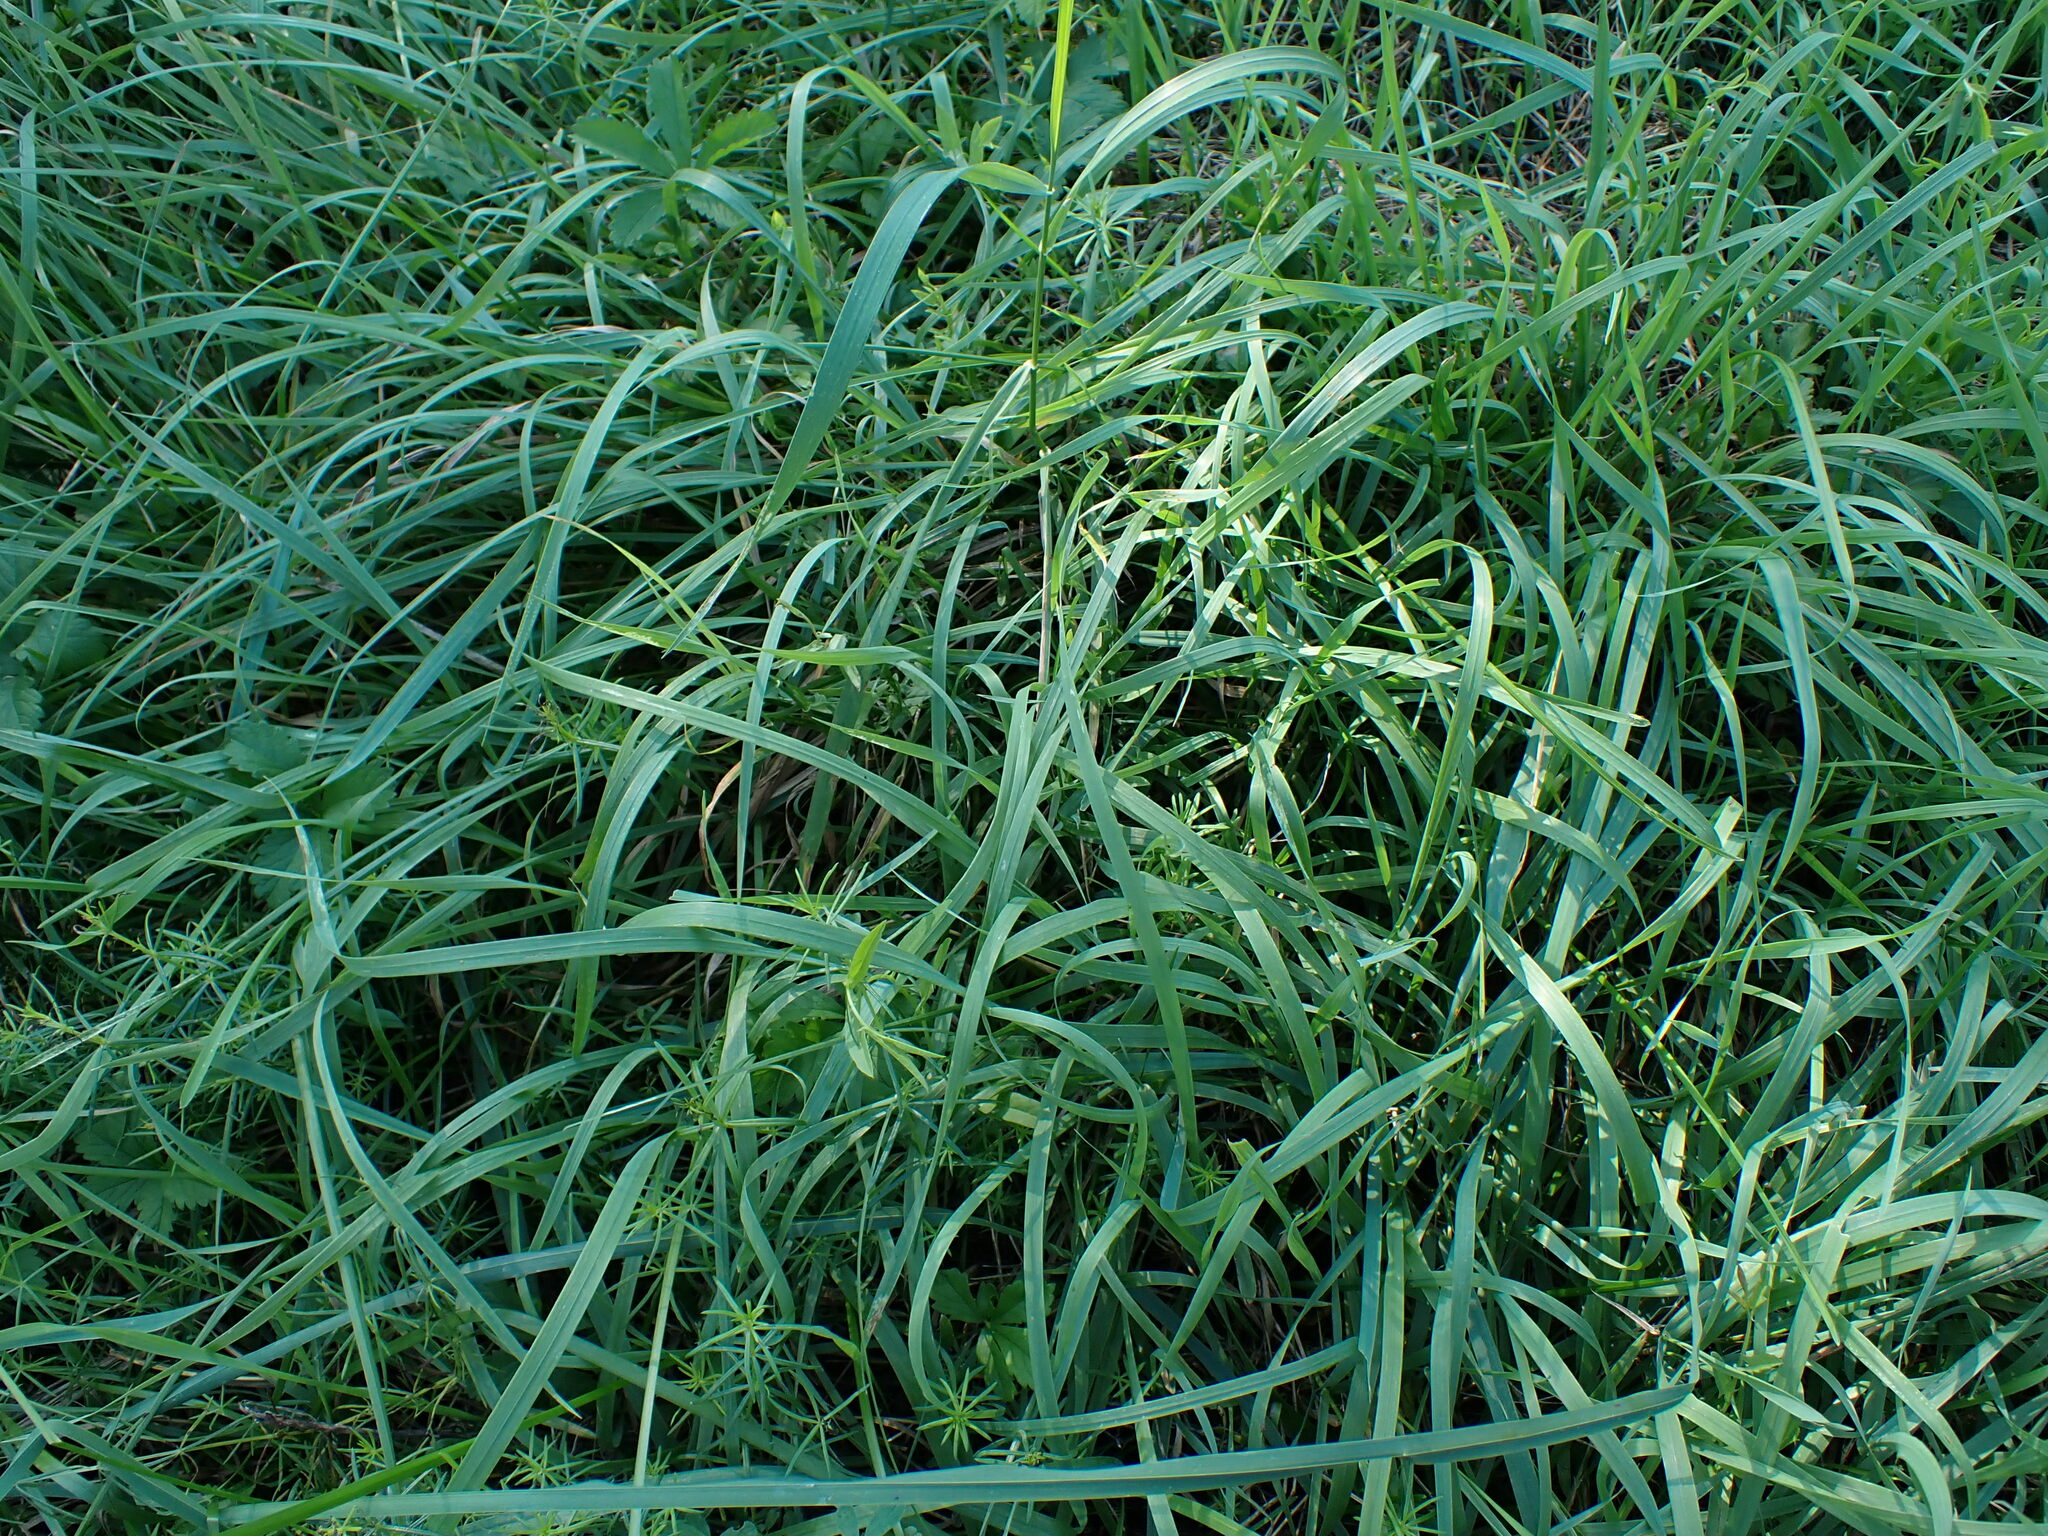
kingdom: Animalia
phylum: Arthropoda
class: Insecta
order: Hemiptera
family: Cicadellidae
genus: Errastunus
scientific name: Errastunus ocellaris
